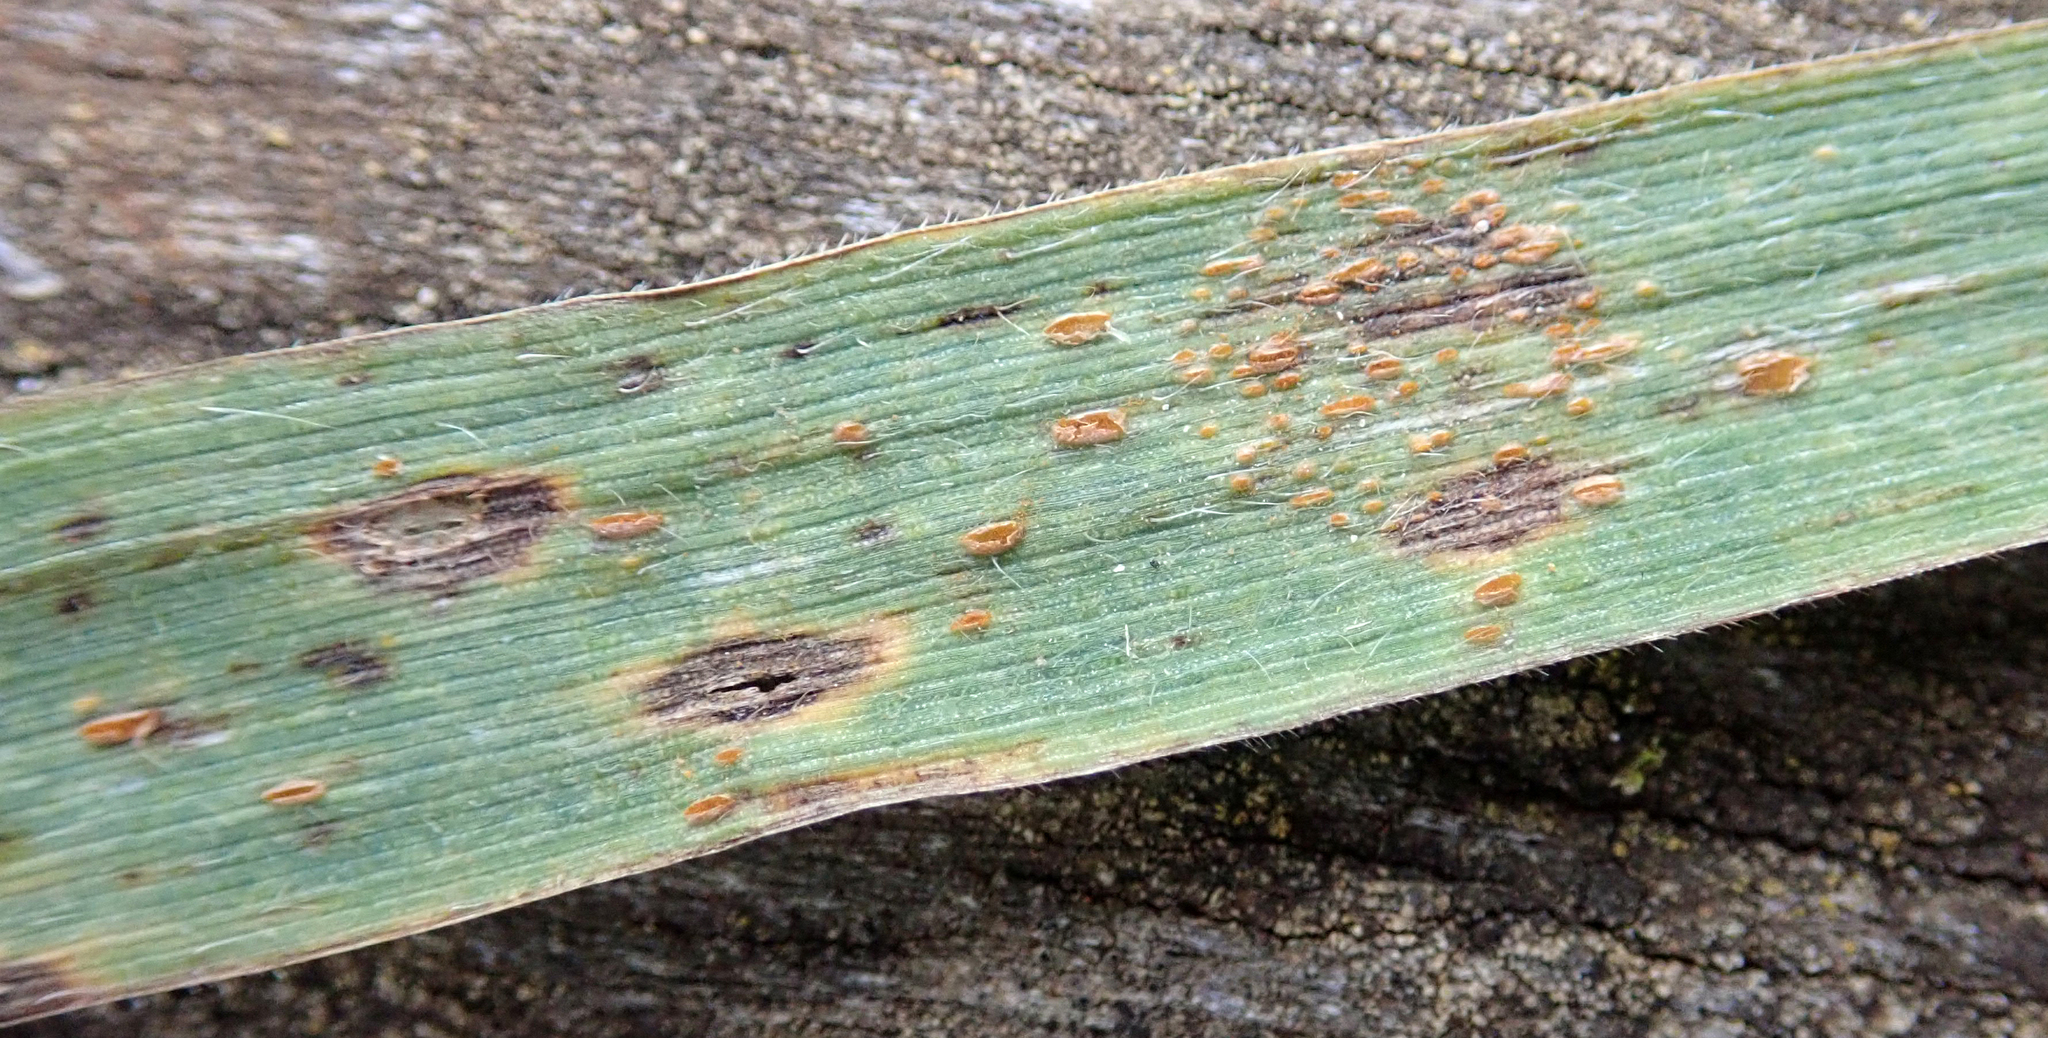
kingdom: Fungi
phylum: Basidiomycota
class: Pucciniomycetes
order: Pucciniales
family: Pucciniaceae
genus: Puccinia
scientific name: Puccinia recondita
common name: Brown rust of wheat
